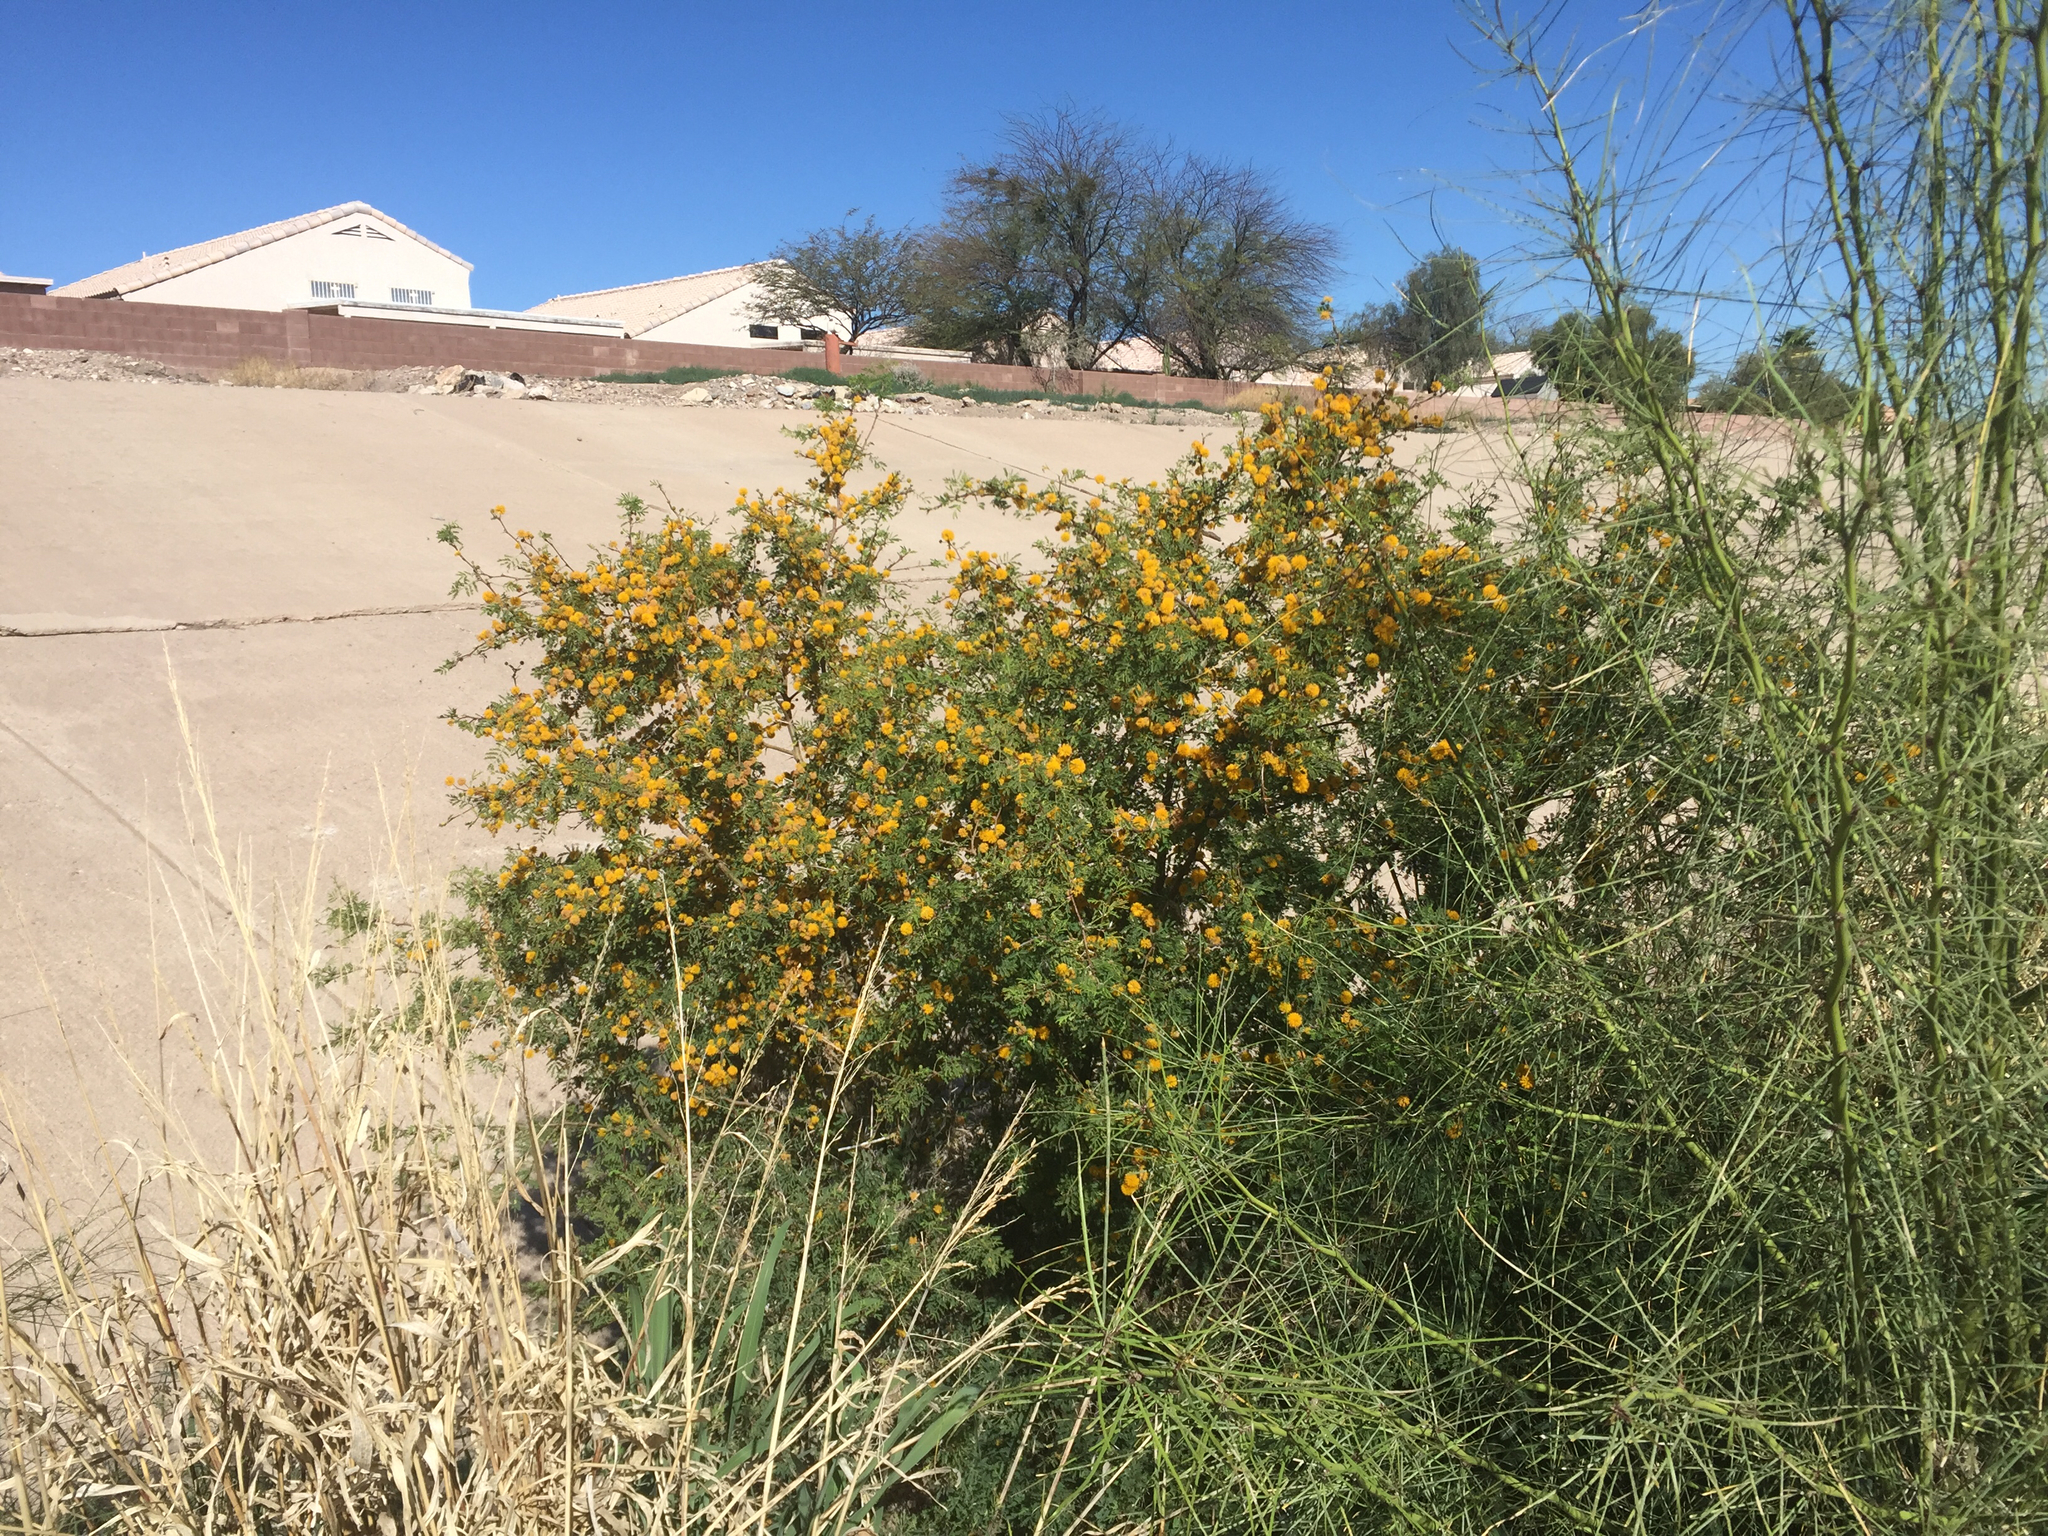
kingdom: Plantae
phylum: Tracheophyta
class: Magnoliopsida
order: Fabales
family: Fabaceae
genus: Vachellia
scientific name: Vachellia farnesiana
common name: Sweet acacia
